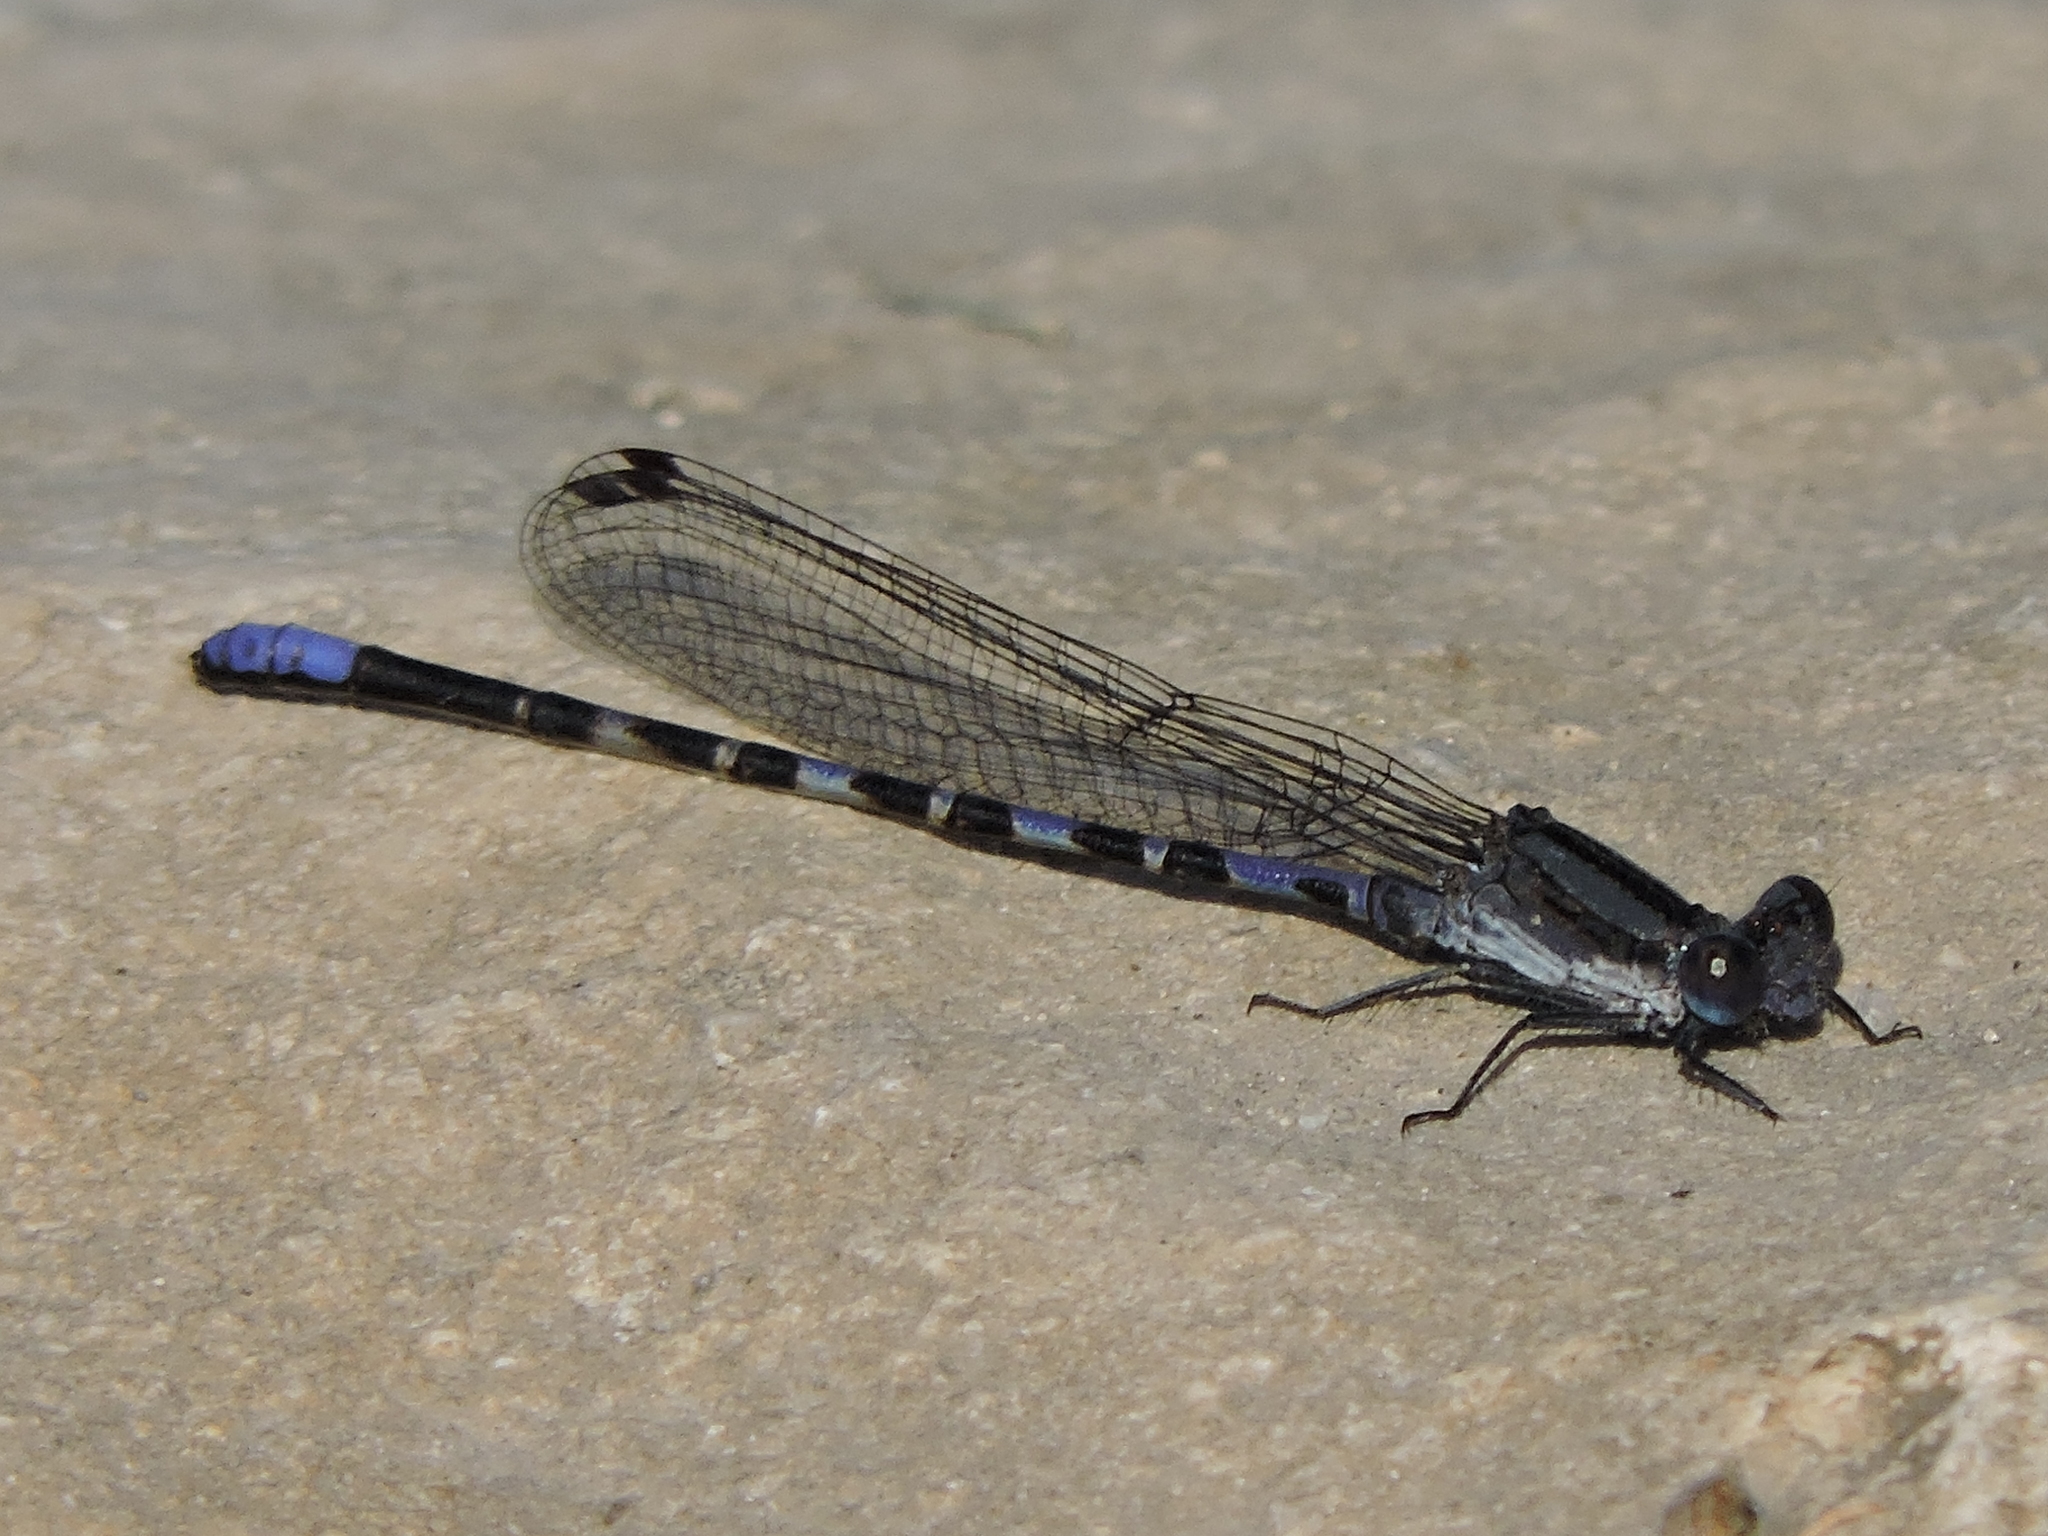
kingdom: Animalia
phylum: Arthropoda
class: Insecta
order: Odonata
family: Coenagrionidae
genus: Argia
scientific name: Argia immunda
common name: Kiowa dancer
